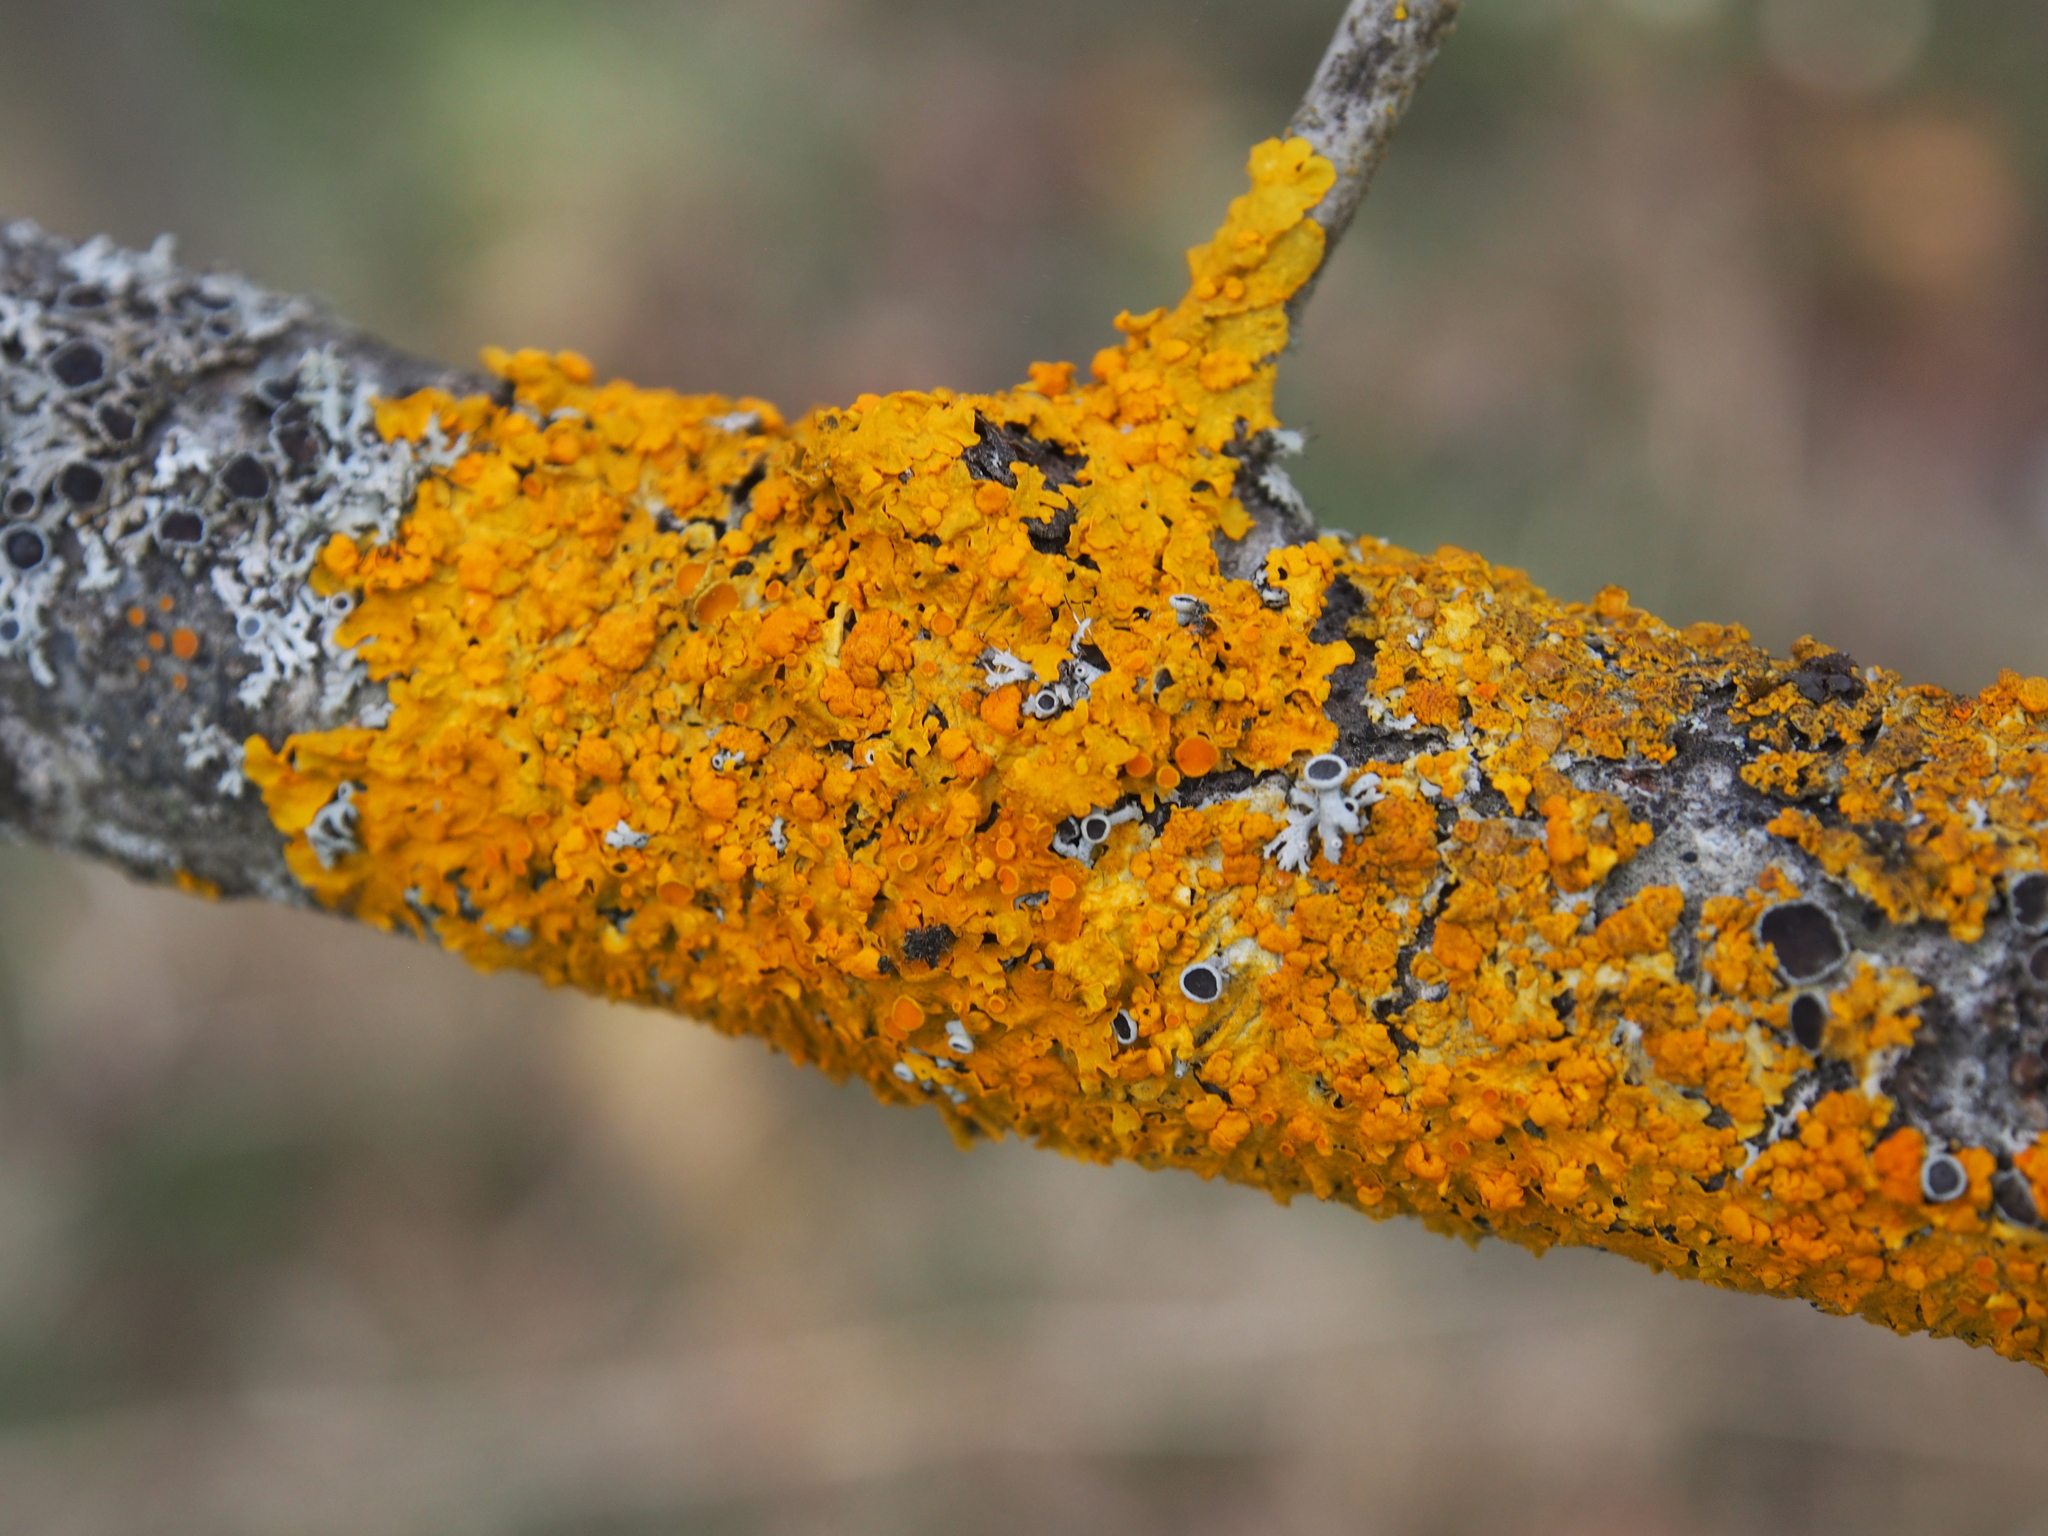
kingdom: Fungi
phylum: Ascomycota
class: Lecanoromycetes
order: Teloschistales
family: Teloschistaceae
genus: Xanthoria
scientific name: Xanthoria parietina
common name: Common orange lichen
